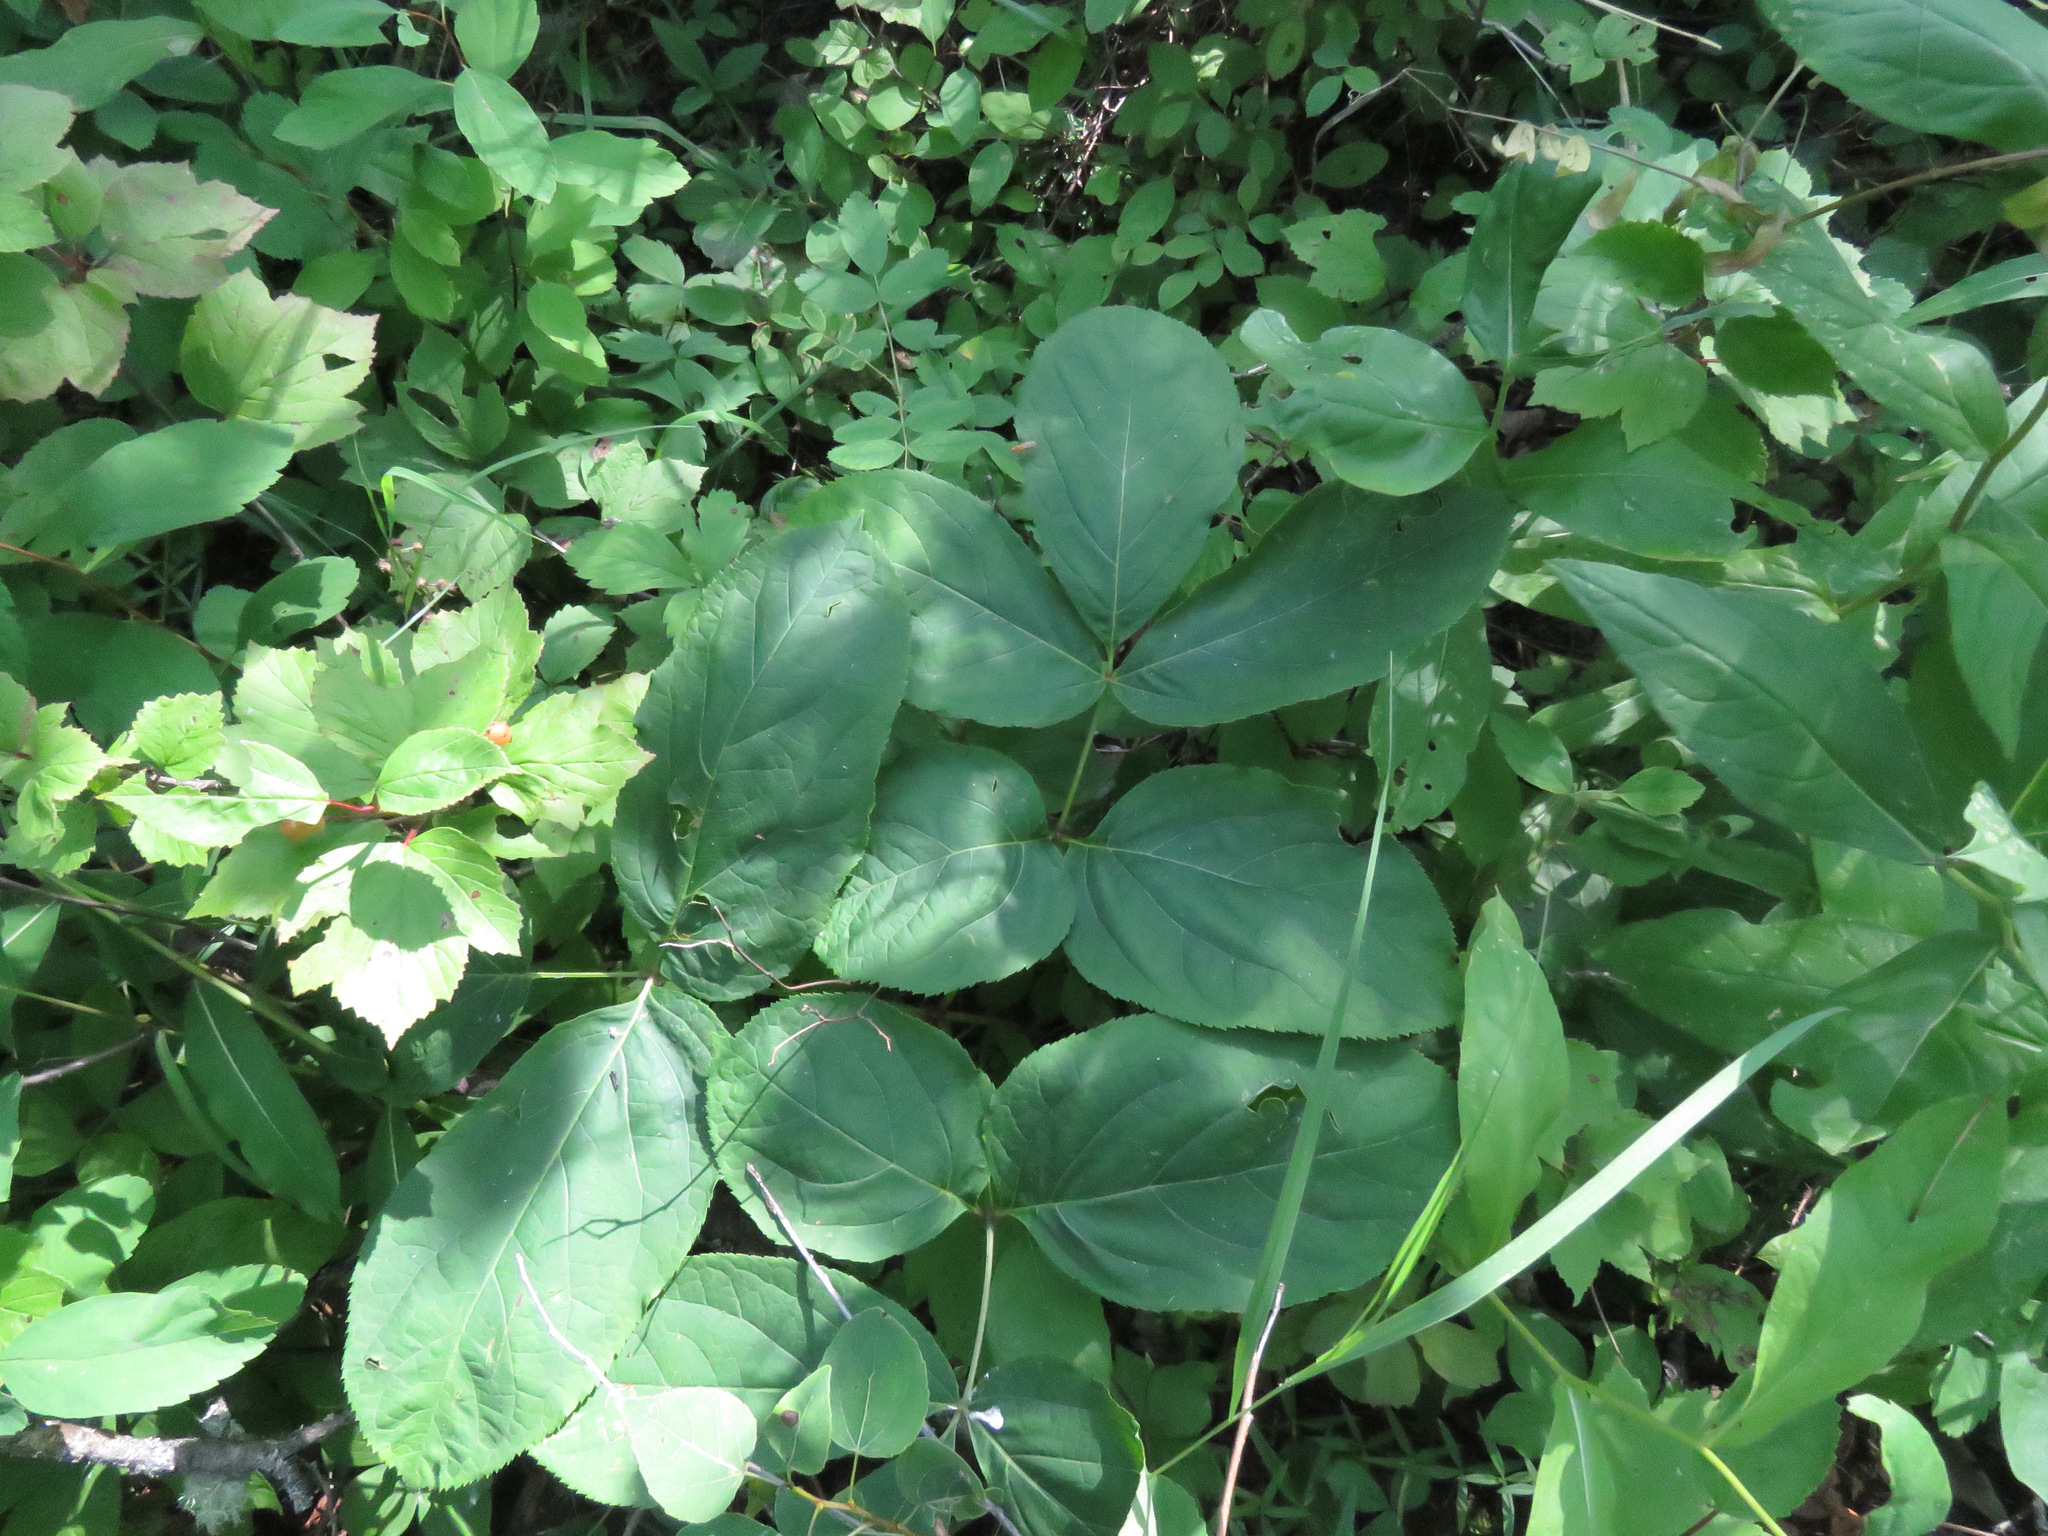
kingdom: Plantae
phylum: Tracheophyta
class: Magnoliopsida
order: Apiales
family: Araliaceae
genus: Aralia
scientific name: Aralia nudicaulis
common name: Wild sarsaparilla
